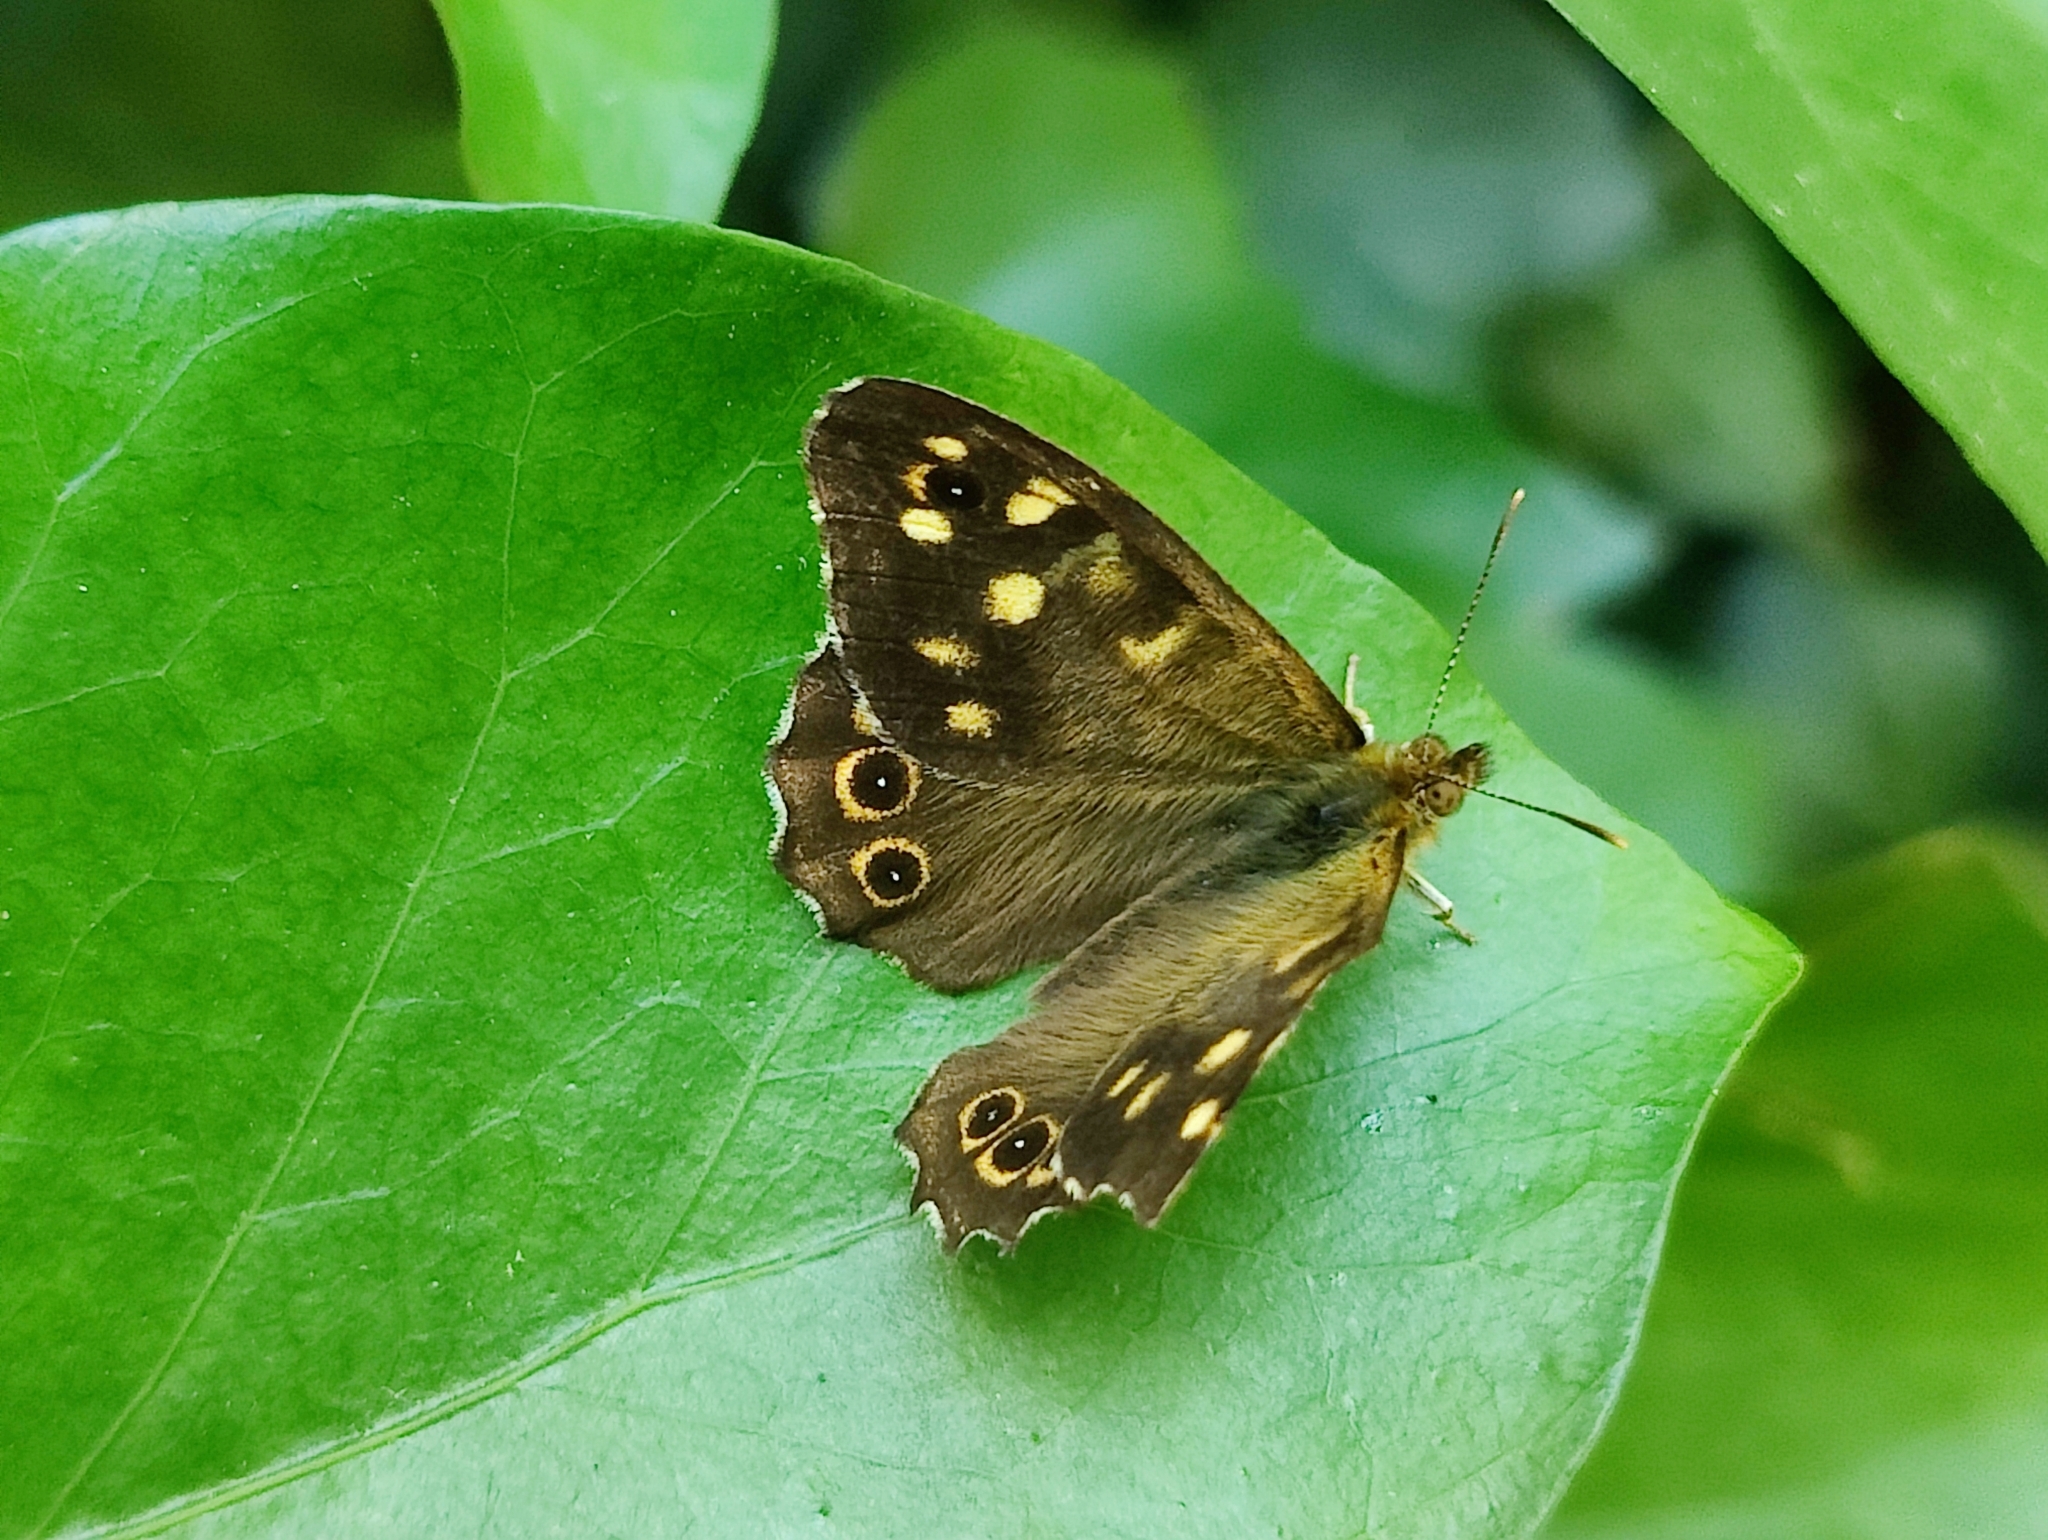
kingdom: Animalia
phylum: Arthropoda
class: Insecta
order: Lepidoptera
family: Nymphalidae
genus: Pararge
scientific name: Pararge aegeria
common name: Speckled wood
